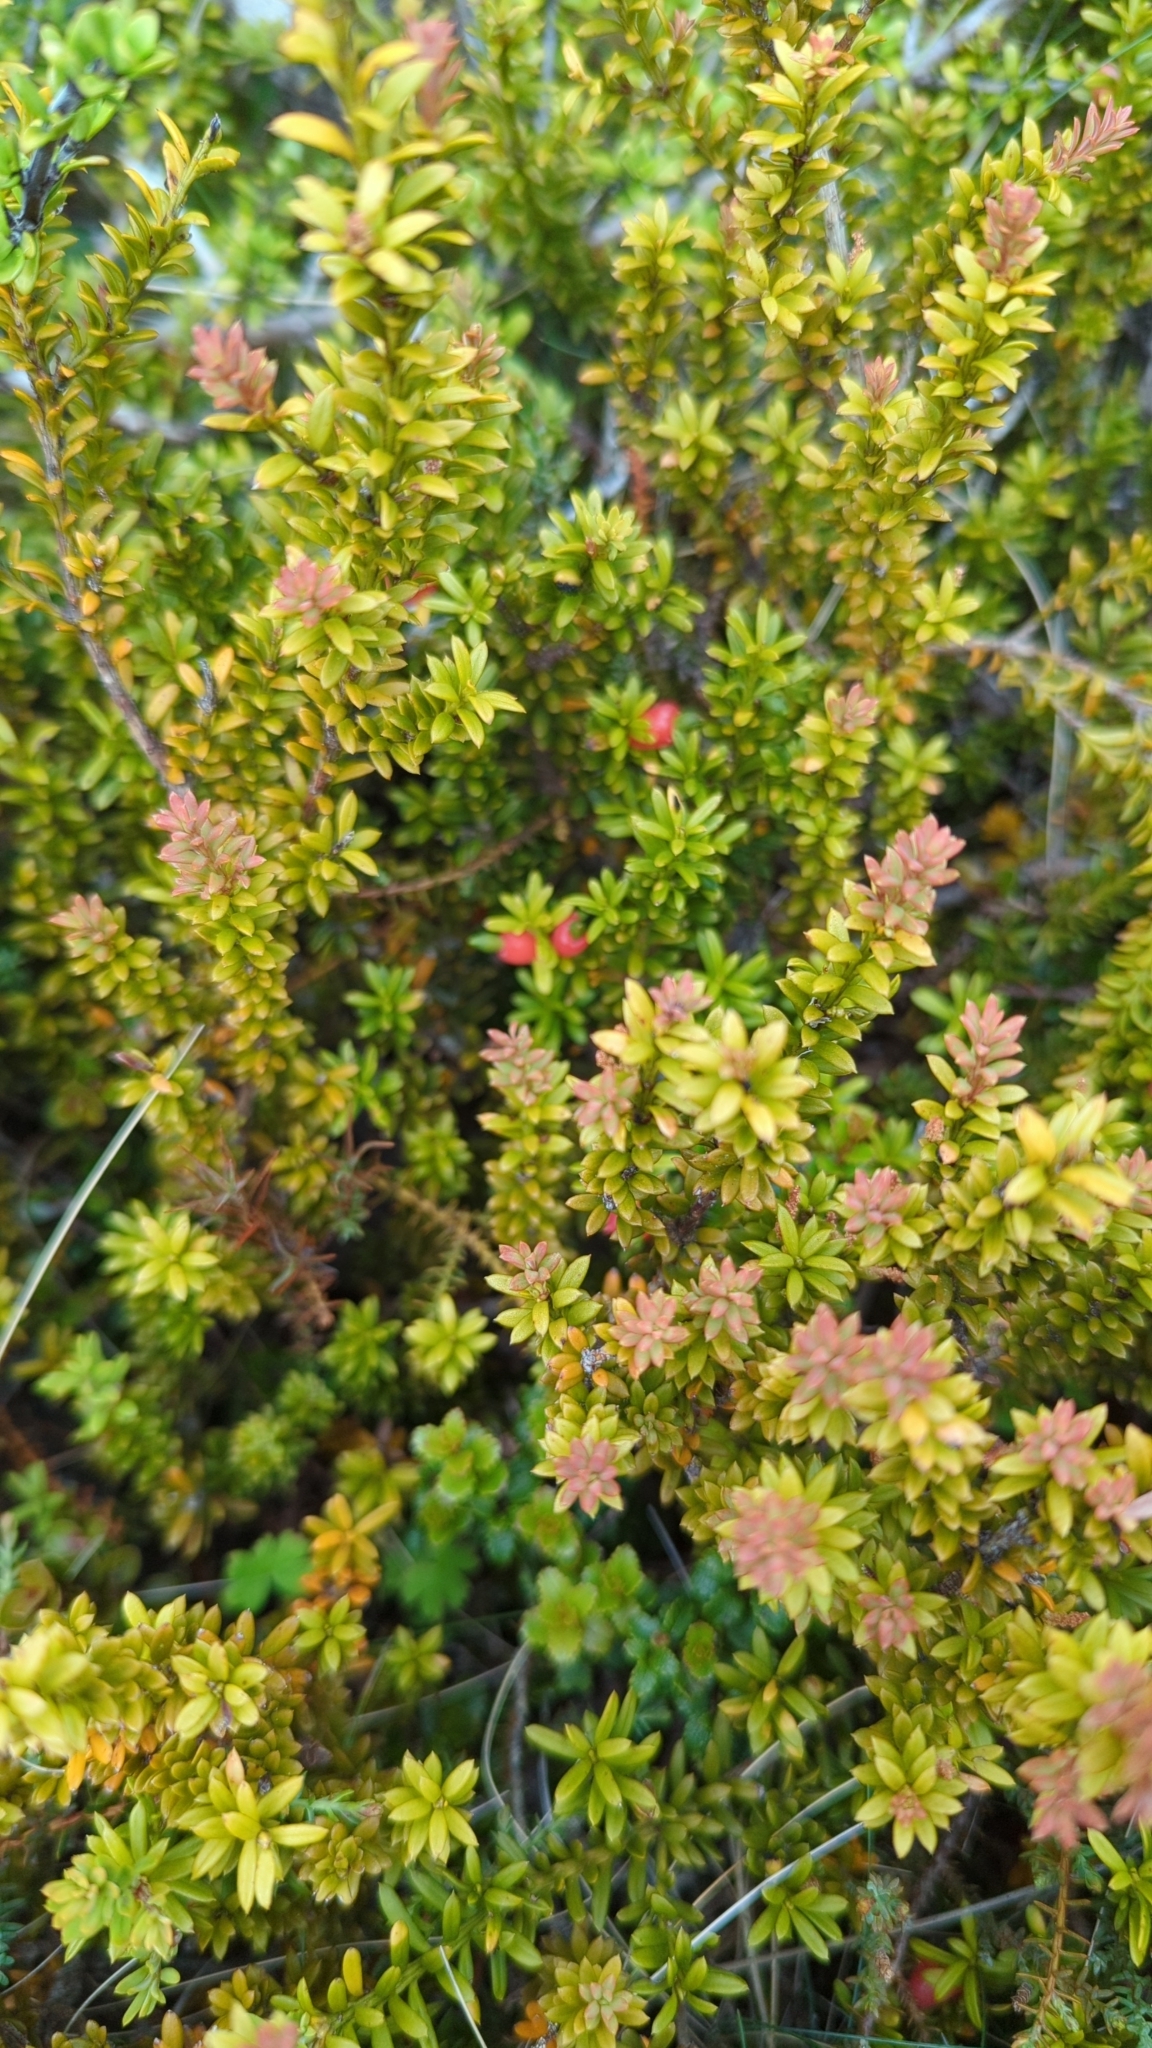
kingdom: Plantae
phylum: Tracheophyta
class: Pinopsida
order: Pinales
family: Podocarpaceae
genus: Podocarpus
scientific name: Podocarpus nivalis
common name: Alpine totara
